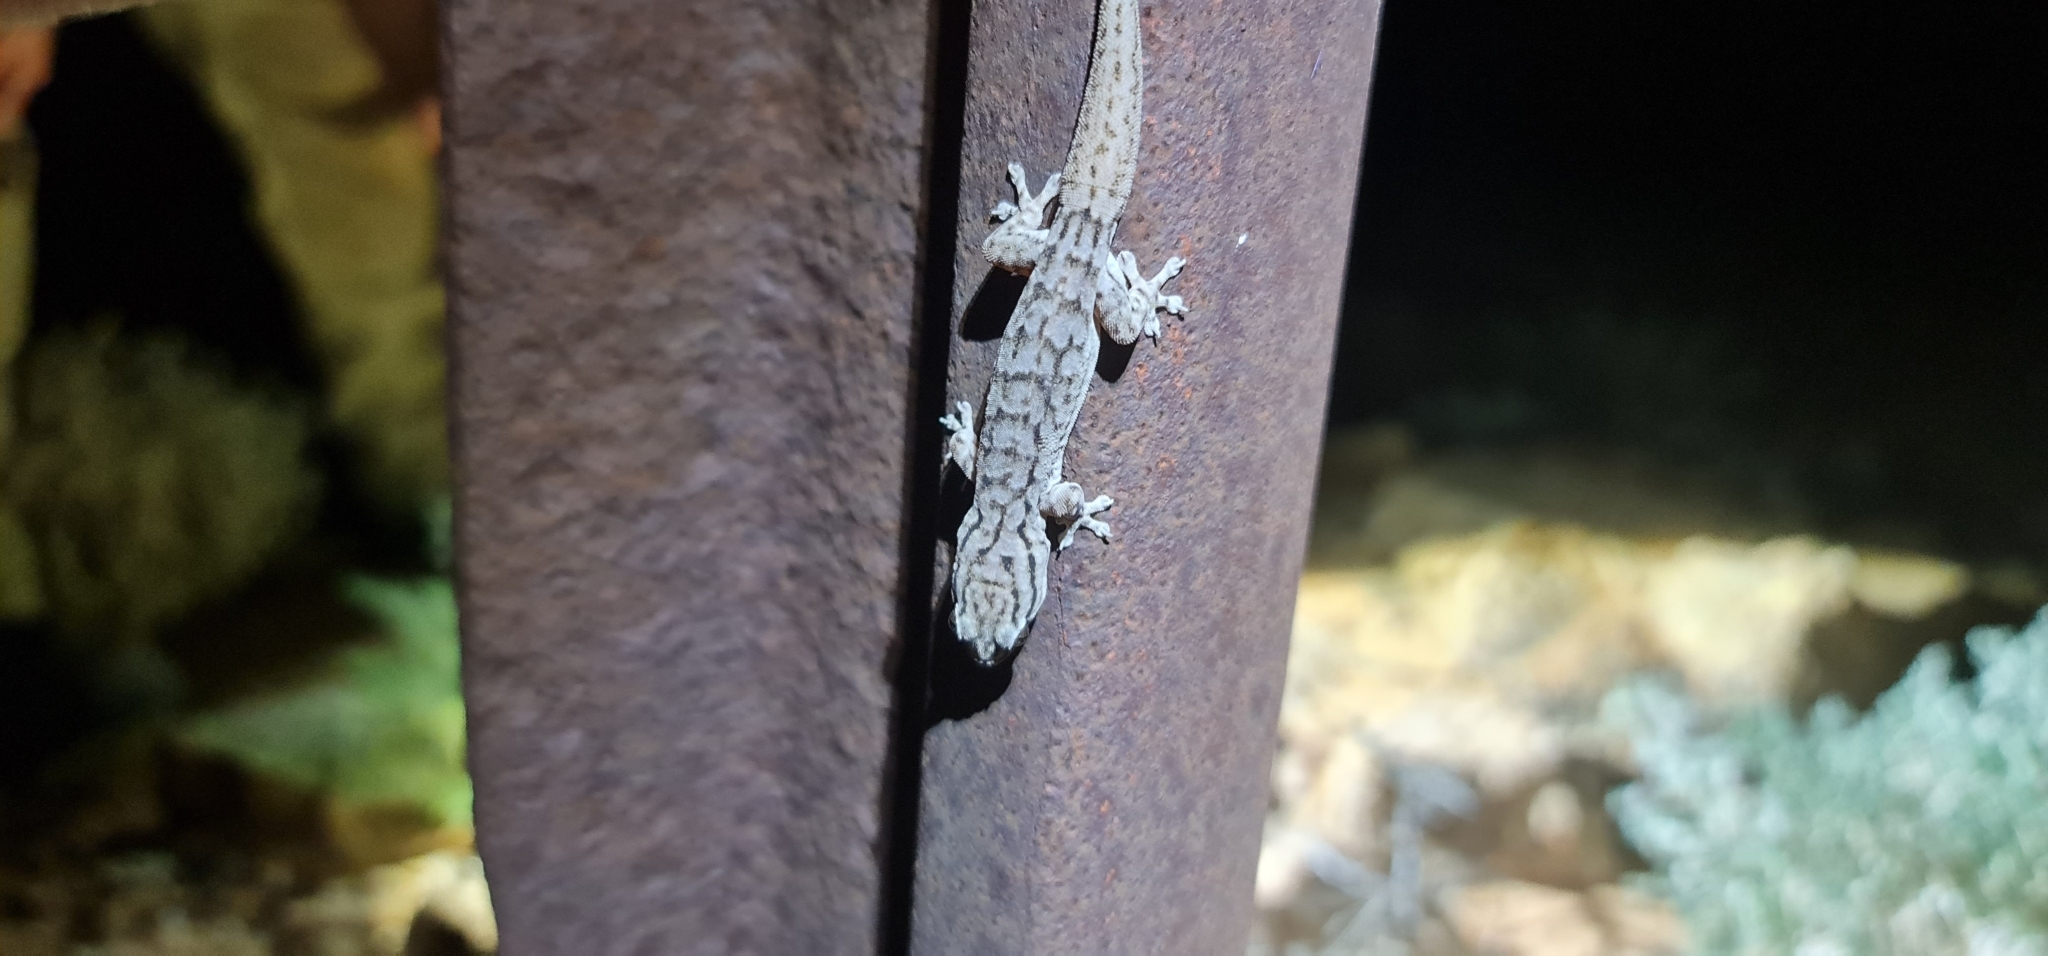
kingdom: Animalia
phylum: Chordata
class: Squamata
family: Gekkonidae
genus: Gehyra
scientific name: Gehyra versicolor
